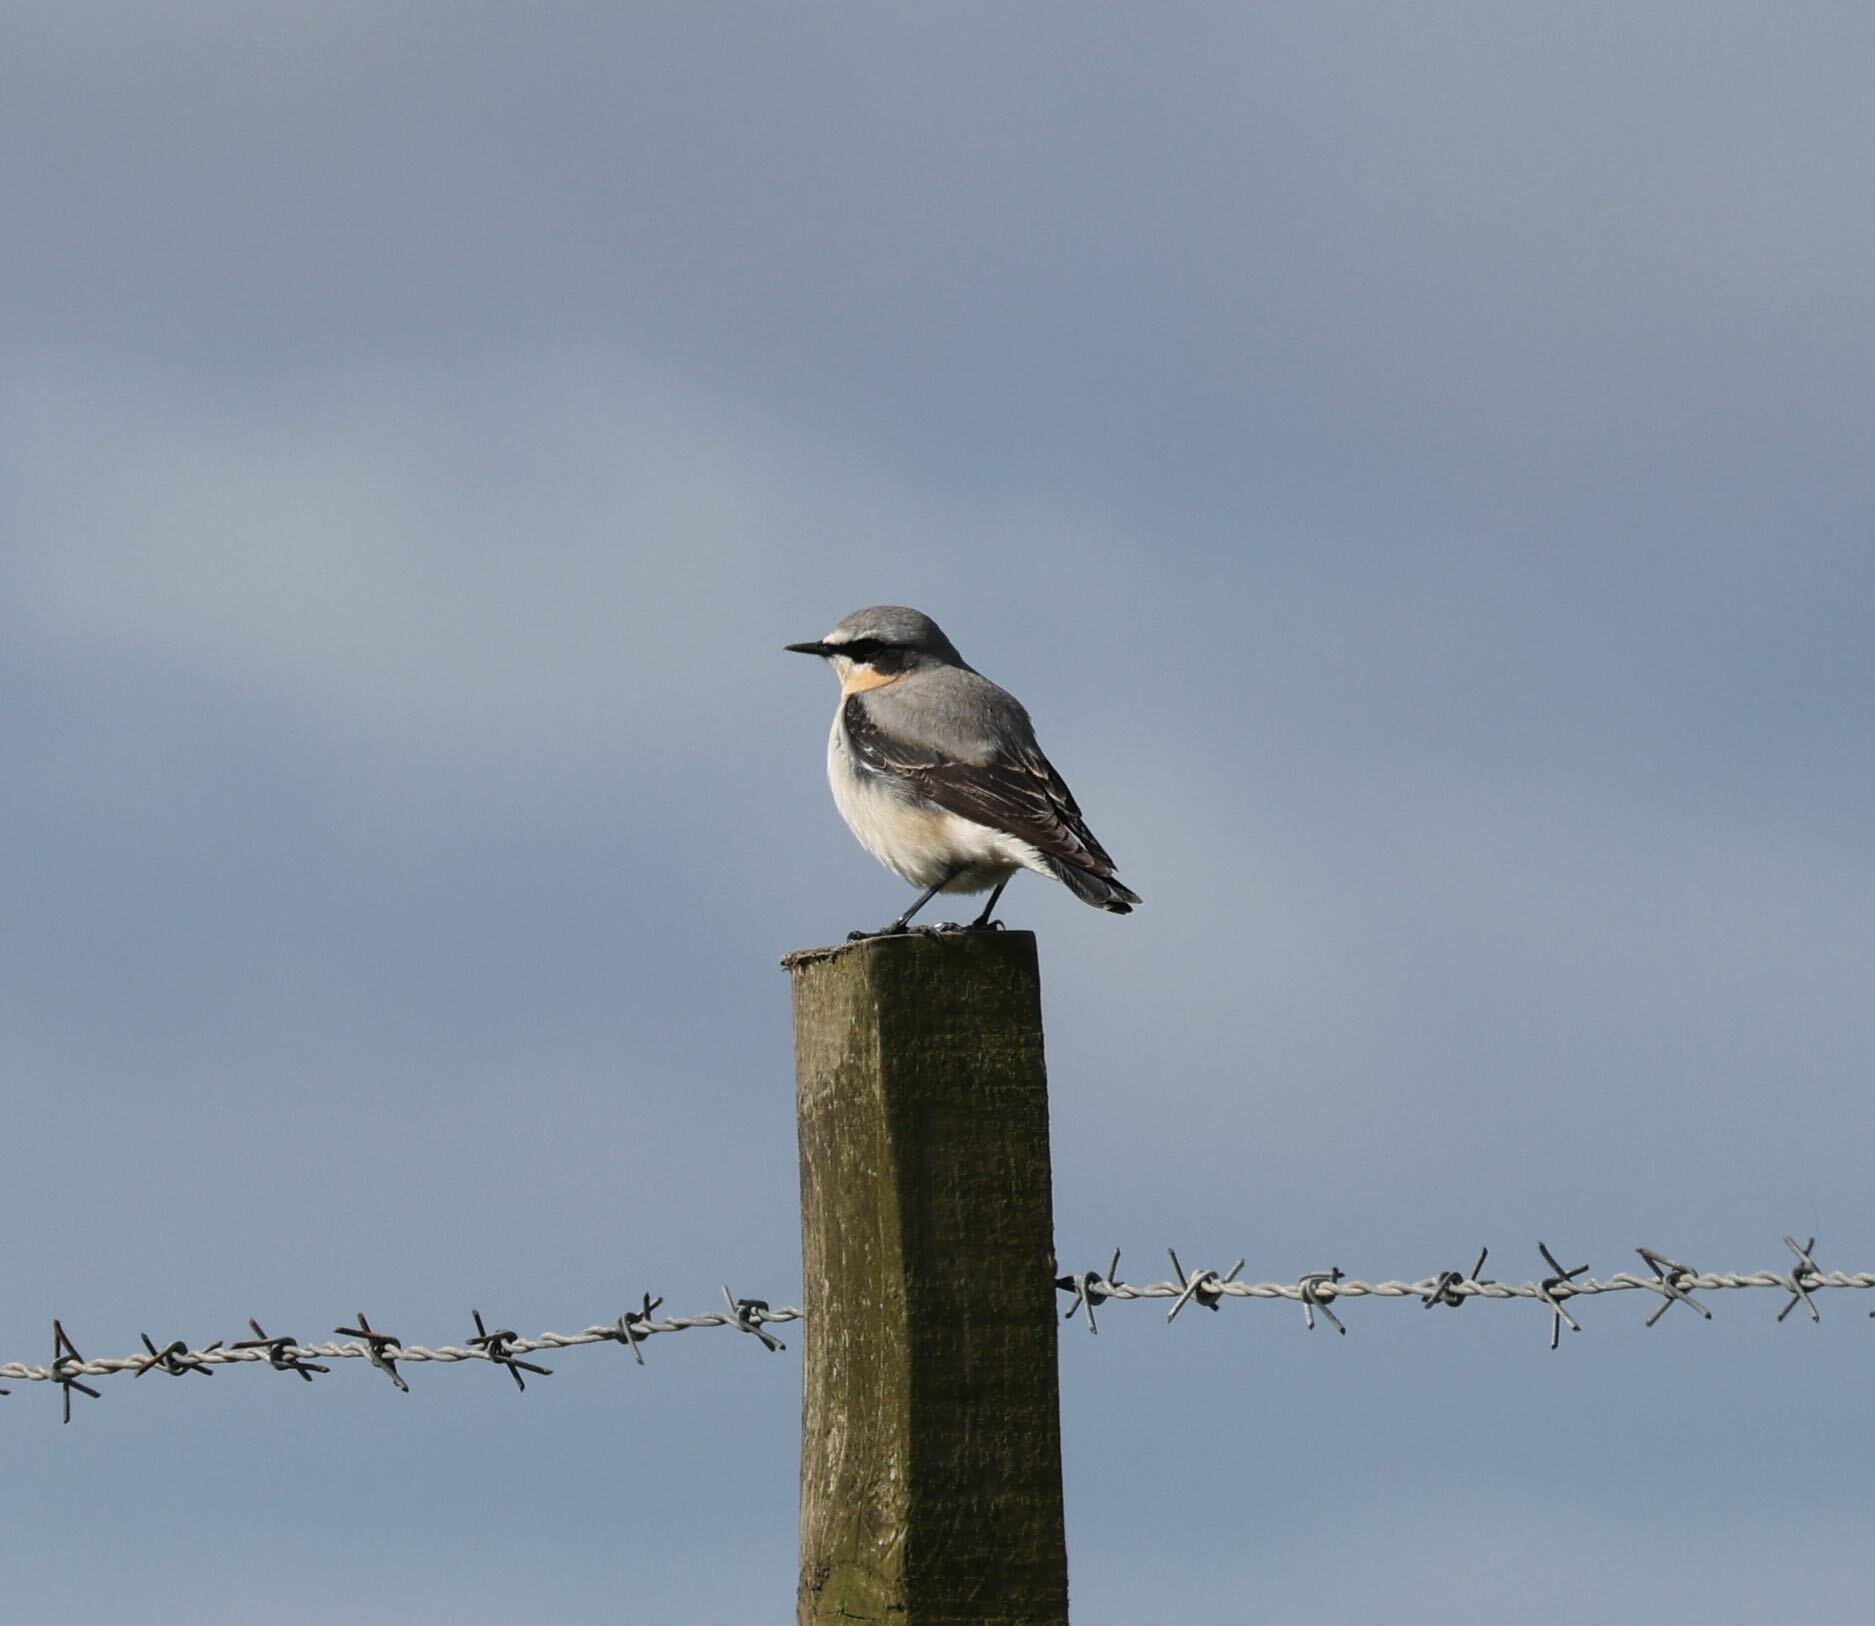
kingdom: Animalia
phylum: Chordata
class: Aves
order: Passeriformes
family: Muscicapidae
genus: Oenanthe
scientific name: Oenanthe oenanthe
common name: Northern wheatear
